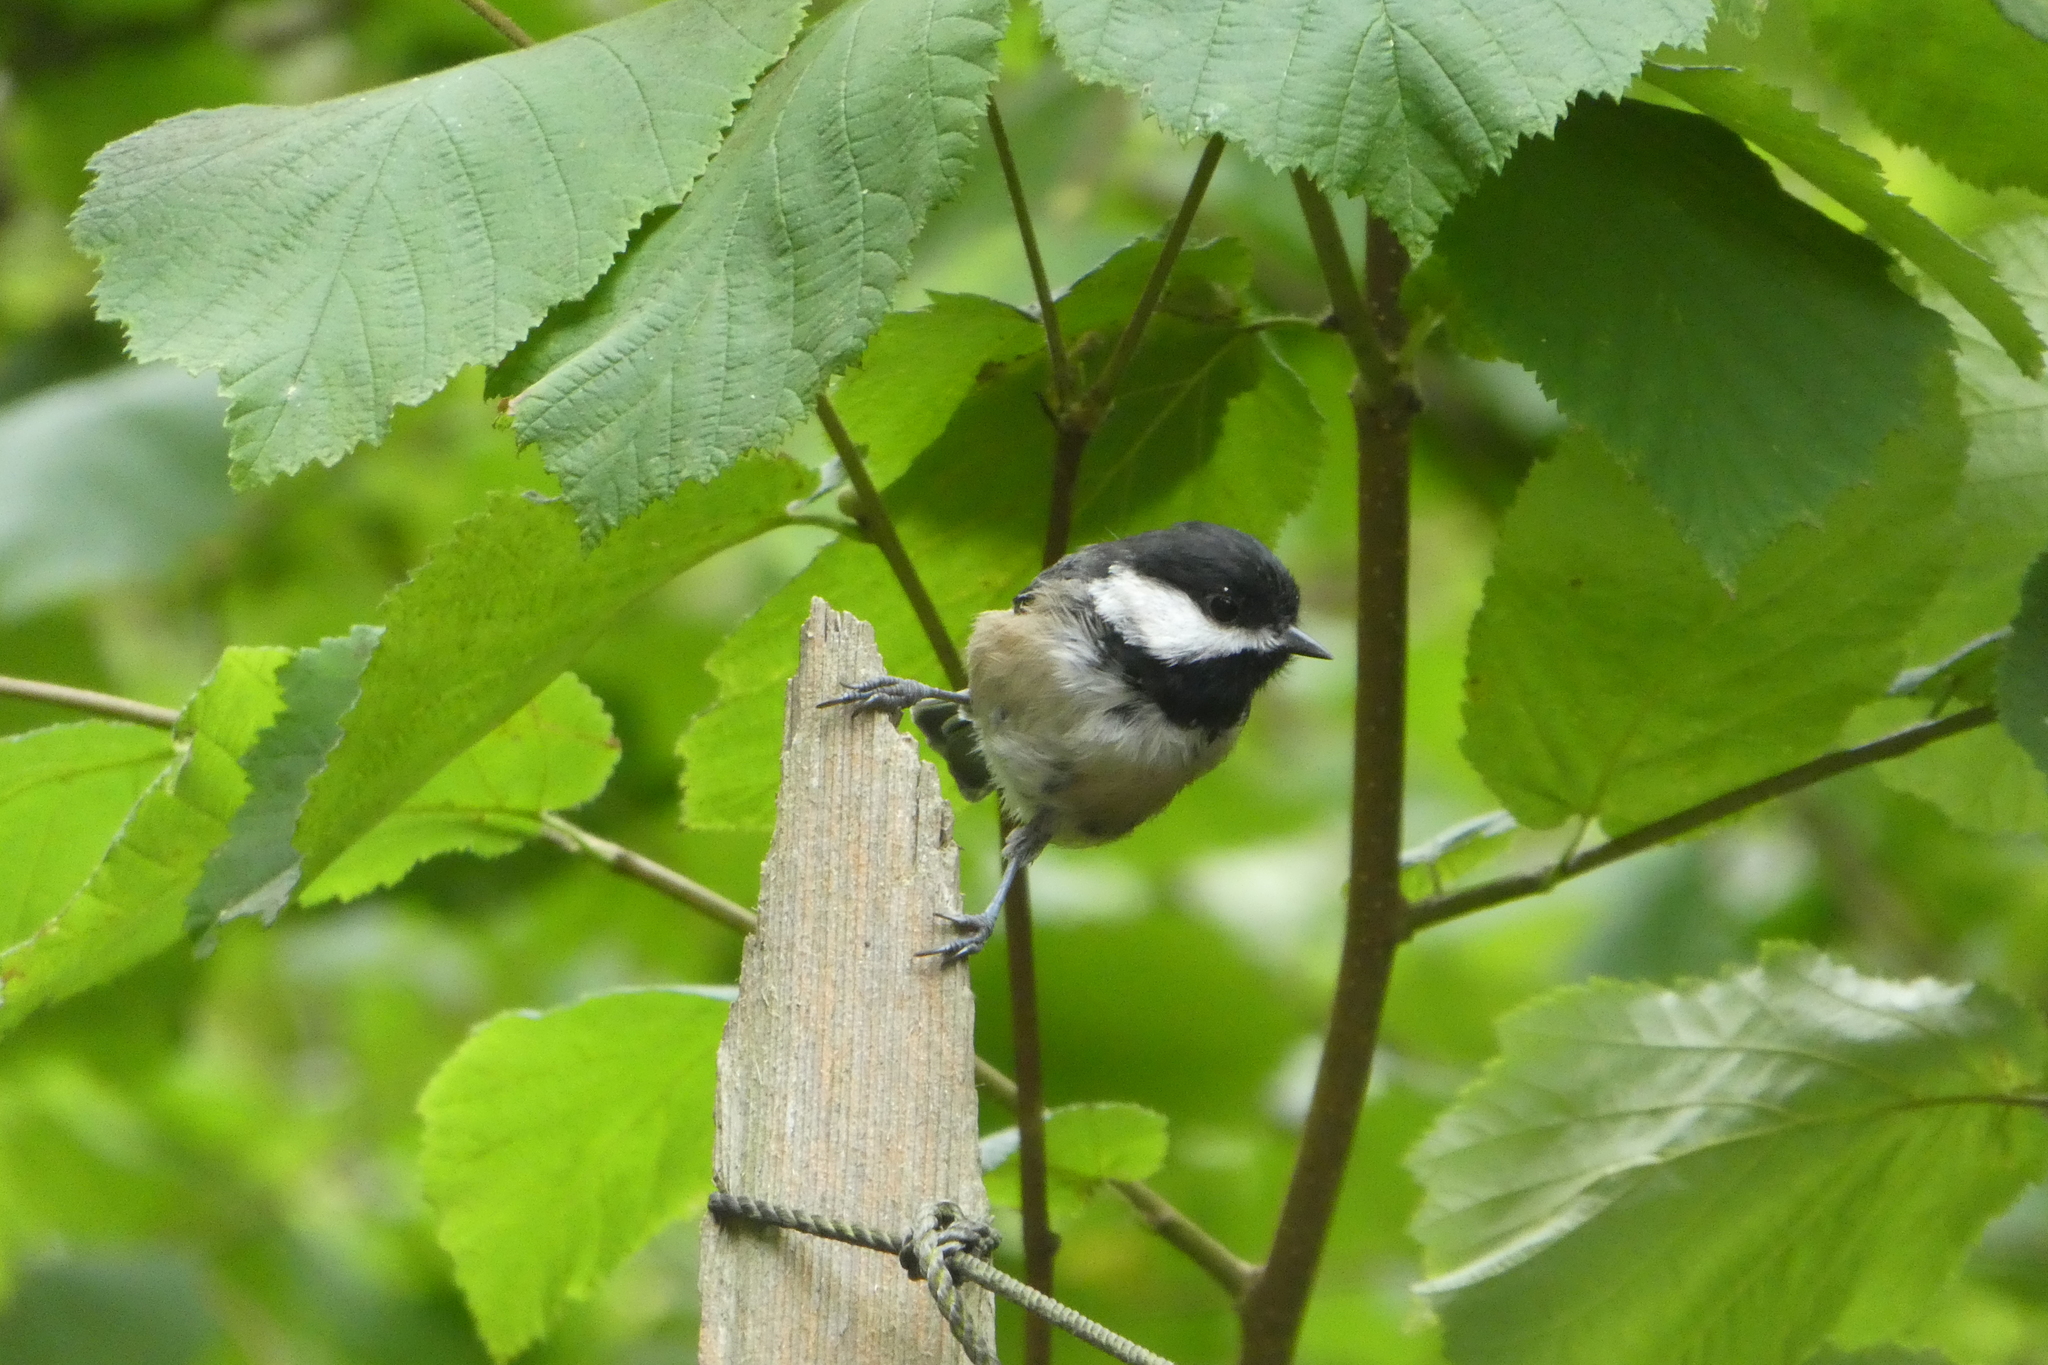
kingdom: Animalia
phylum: Chordata
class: Aves
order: Passeriformes
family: Paridae
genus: Poecile
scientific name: Poecile atricapillus
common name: Black-capped chickadee
